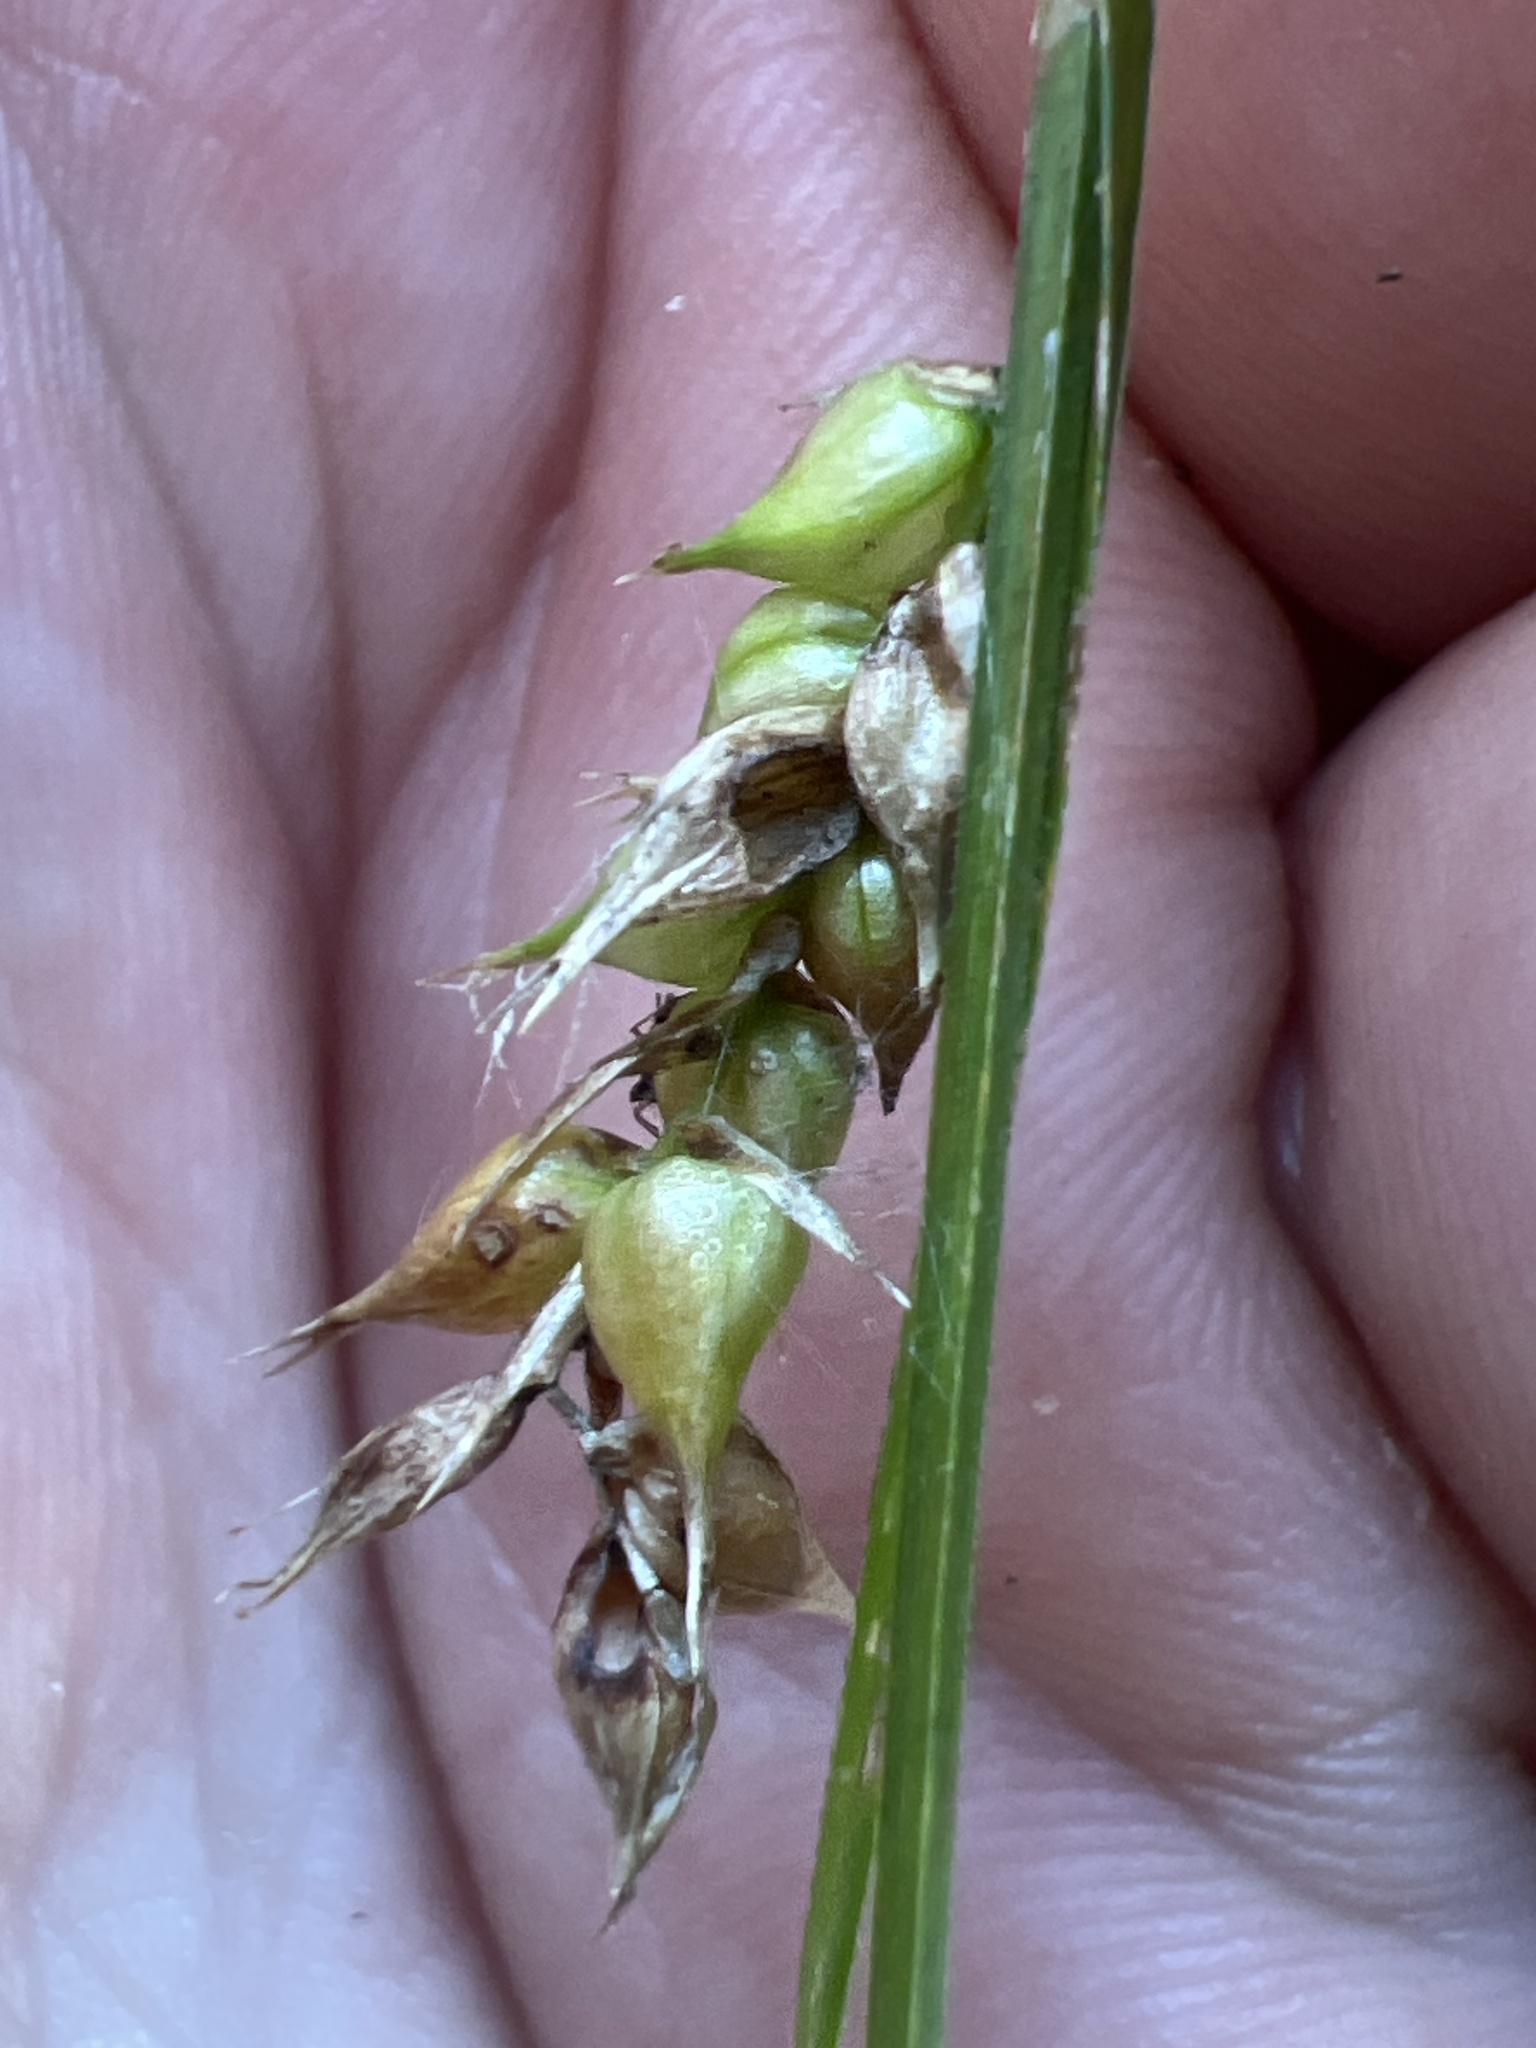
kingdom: Plantae
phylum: Tracheophyta
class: Liliopsida
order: Poales
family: Cyperaceae
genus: Carex
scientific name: Carex vesicaria
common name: Bladder-sedge
